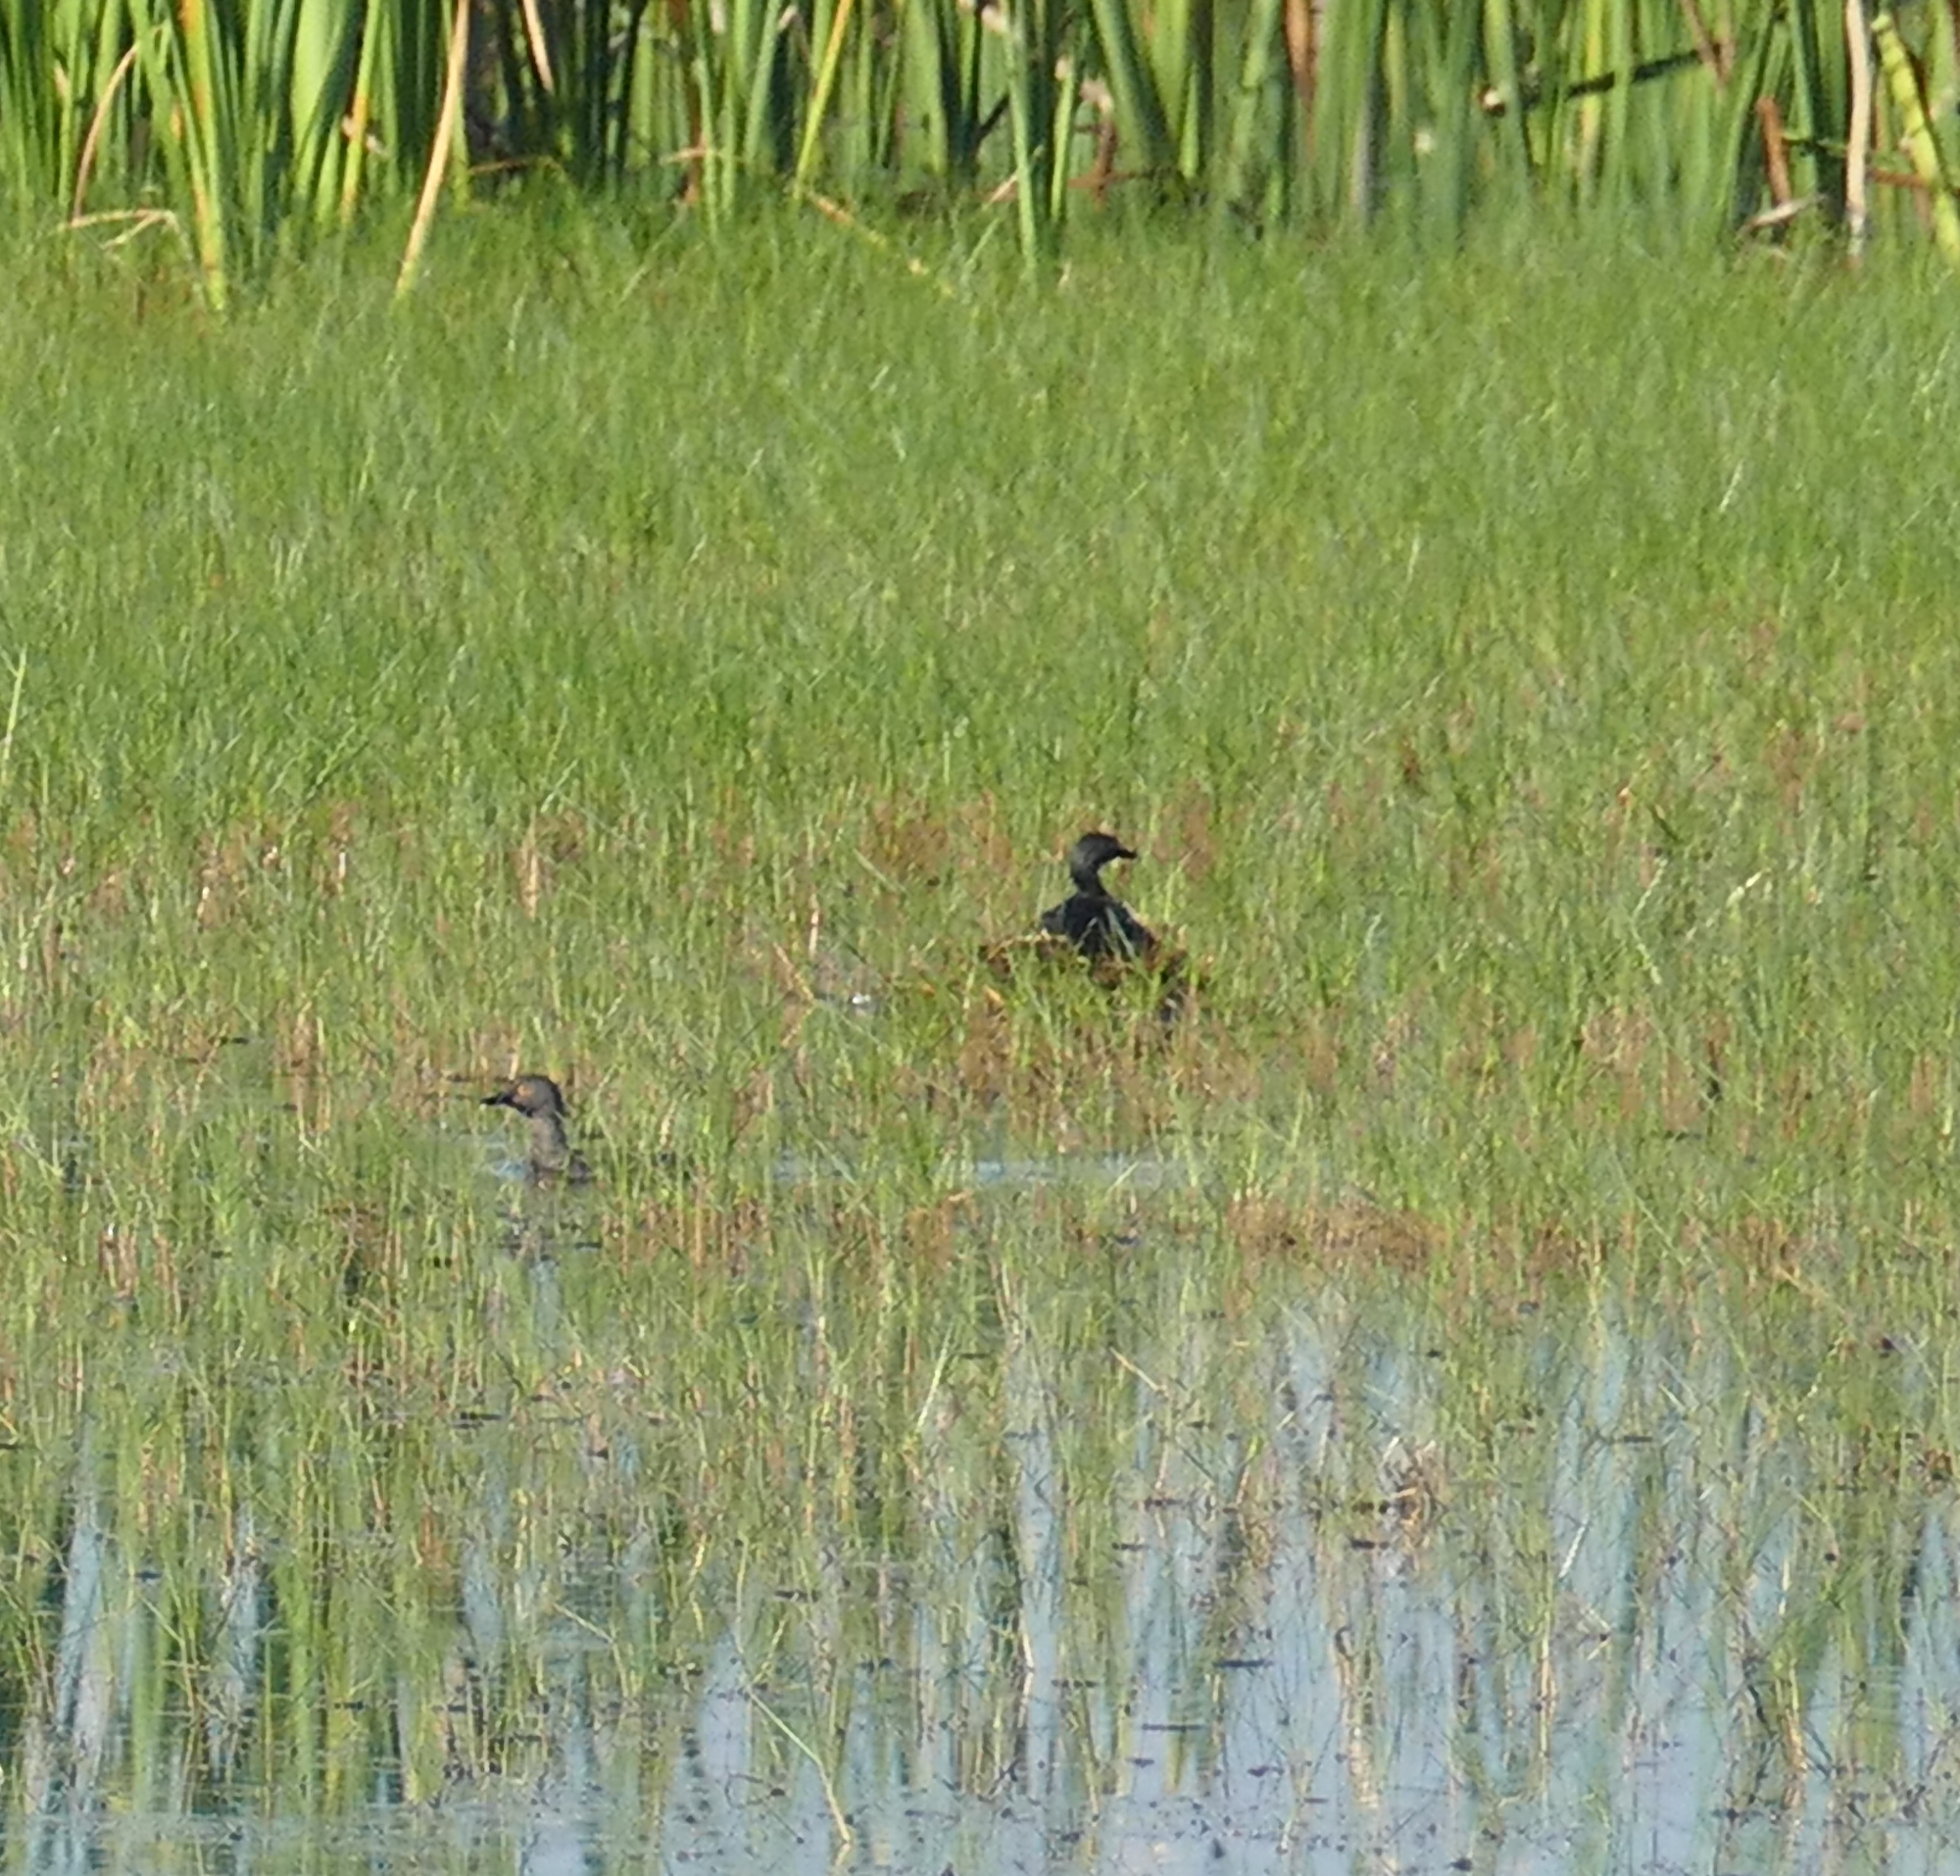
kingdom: Animalia
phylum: Chordata
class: Aves
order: Podicipediformes
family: Podicipedidae
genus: Tachybaptus
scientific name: Tachybaptus dominicus
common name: Least grebe
